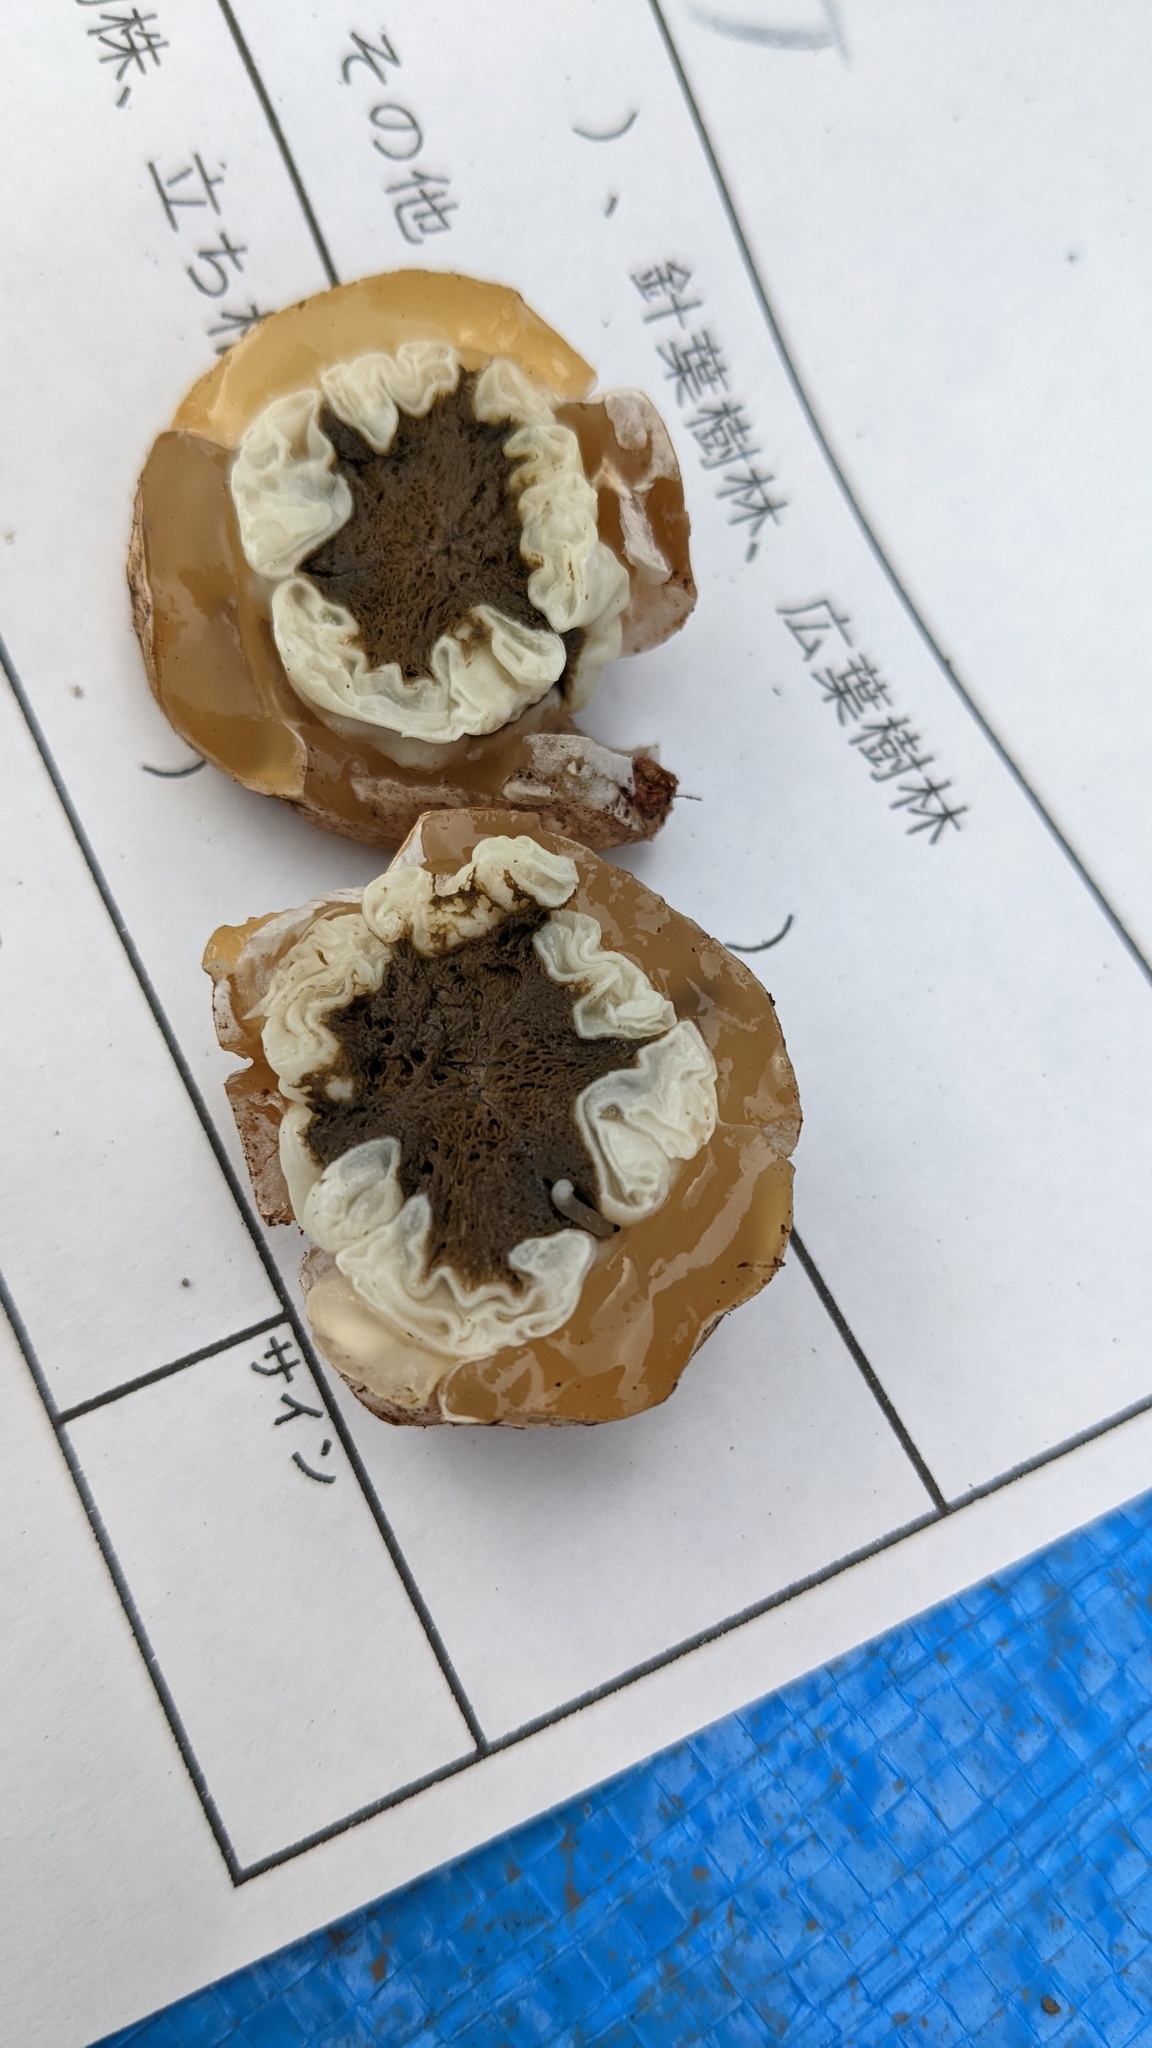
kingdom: Fungi
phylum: Basidiomycota
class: Agaricomycetes
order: Phallales
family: Phallaceae
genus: Ileodictyon
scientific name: Ileodictyon gracile
